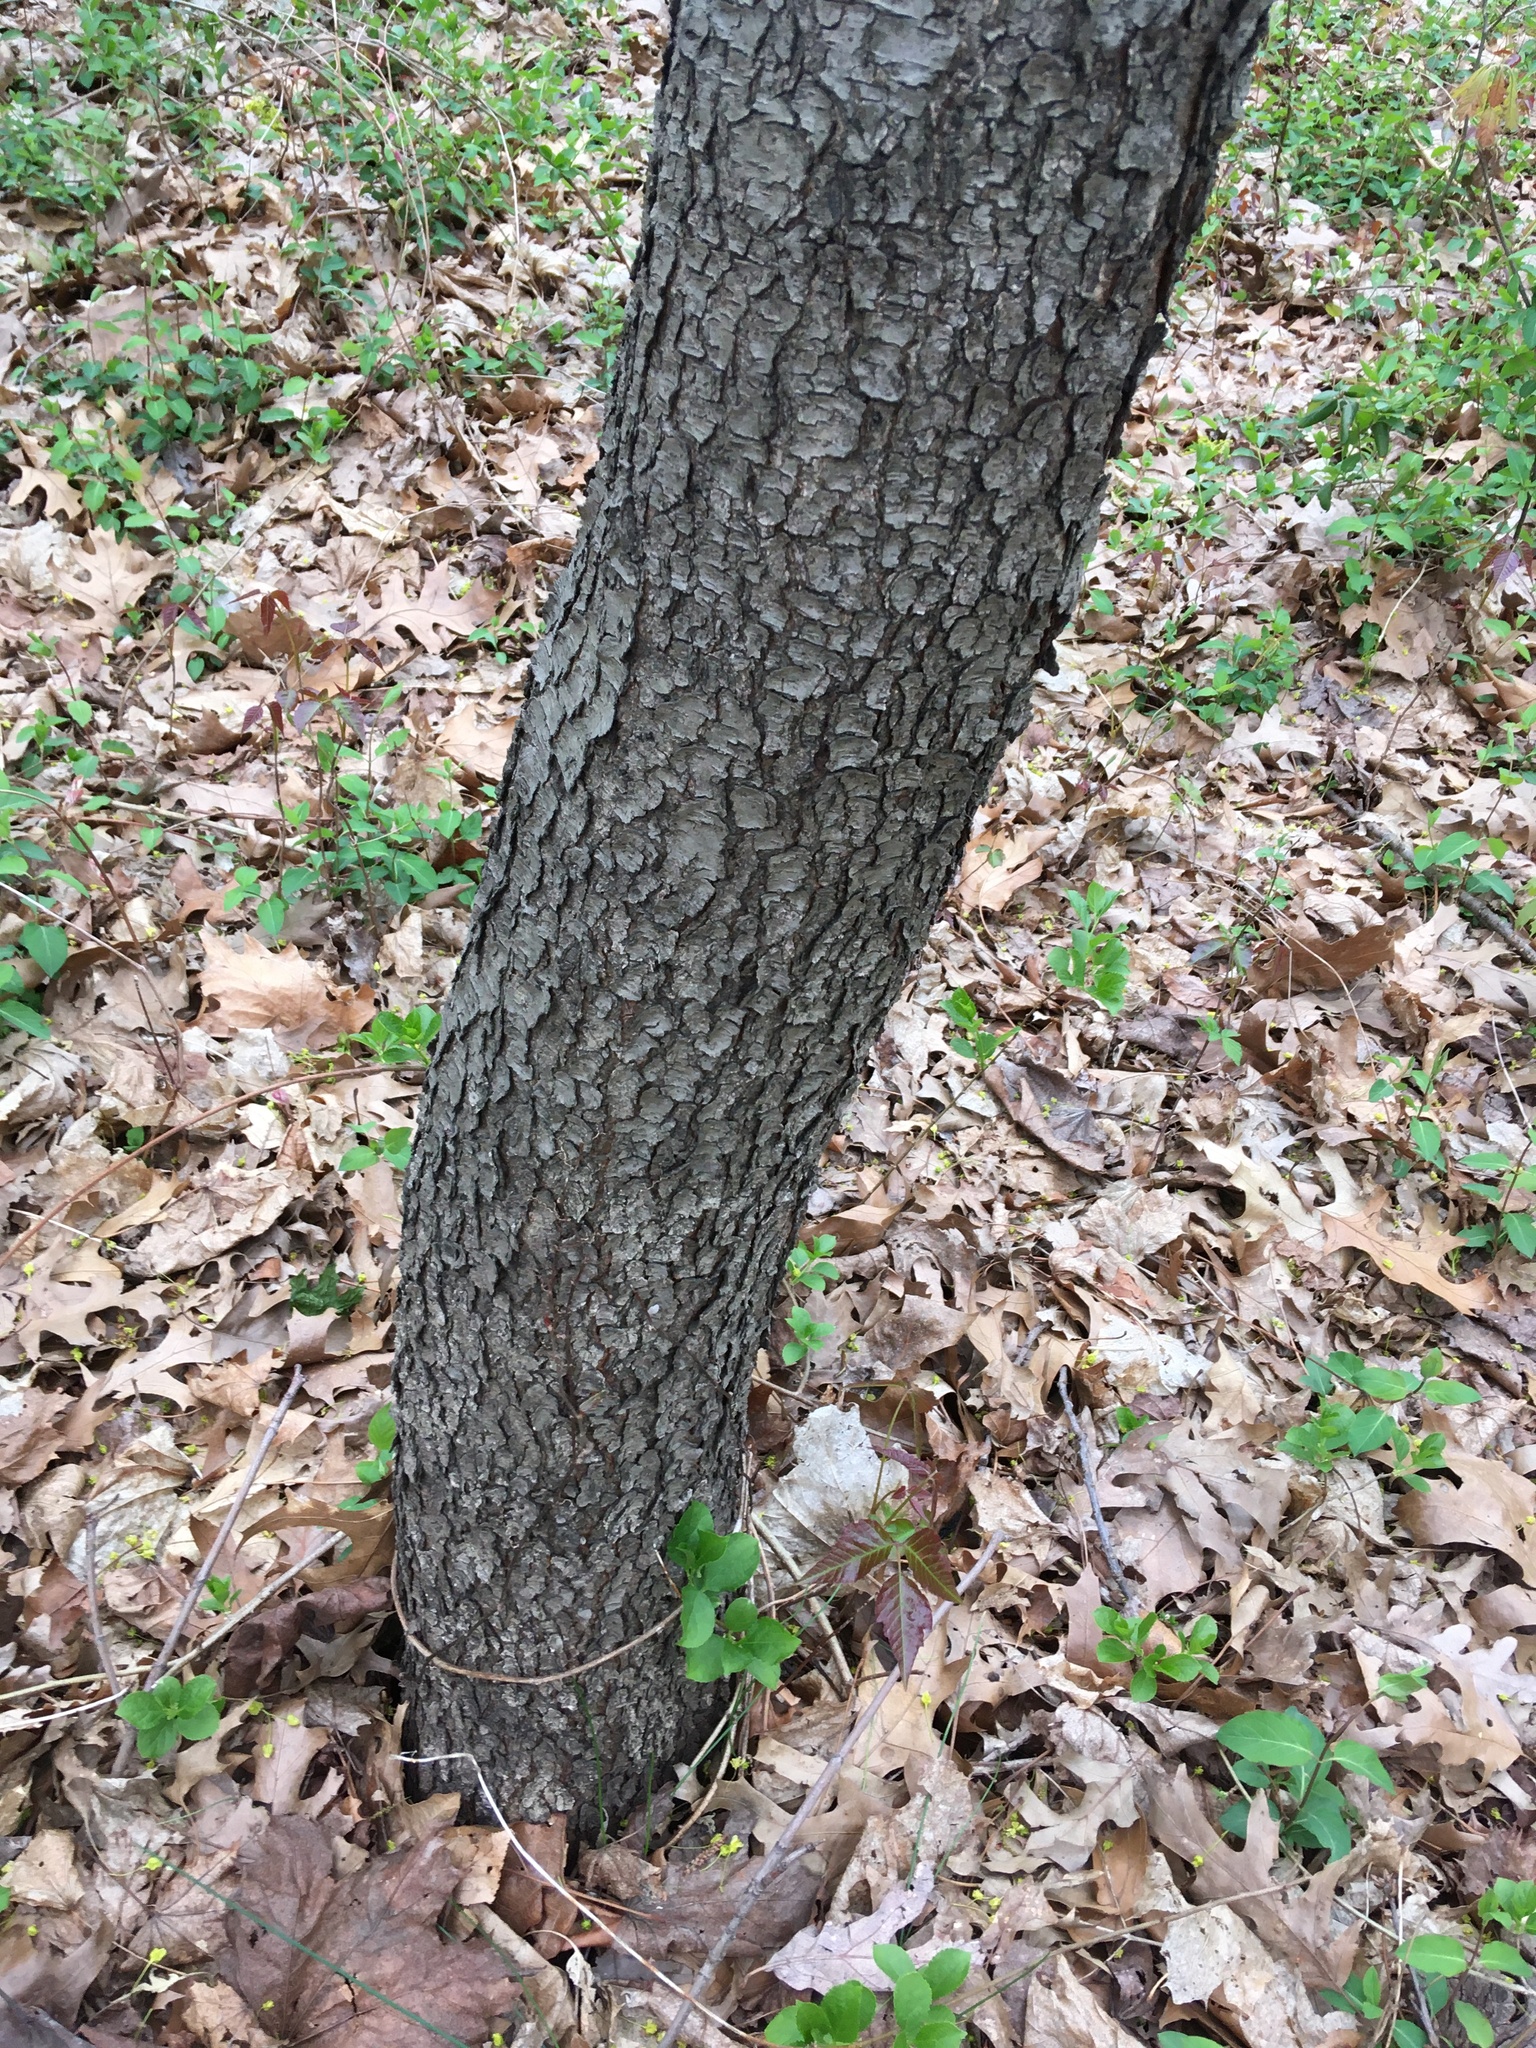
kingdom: Plantae
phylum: Tracheophyta
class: Magnoliopsida
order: Rosales
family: Rosaceae
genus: Prunus
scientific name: Prunus serotina
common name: Black cherry
